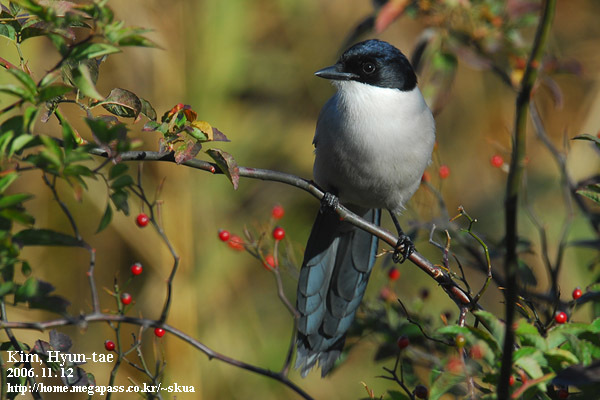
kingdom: Animalia
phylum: Chordata
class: Aves
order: Passeriformes
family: Corvidae
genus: Cyanopica
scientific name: Cyanopica cyanus
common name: Azure-winged magpie
